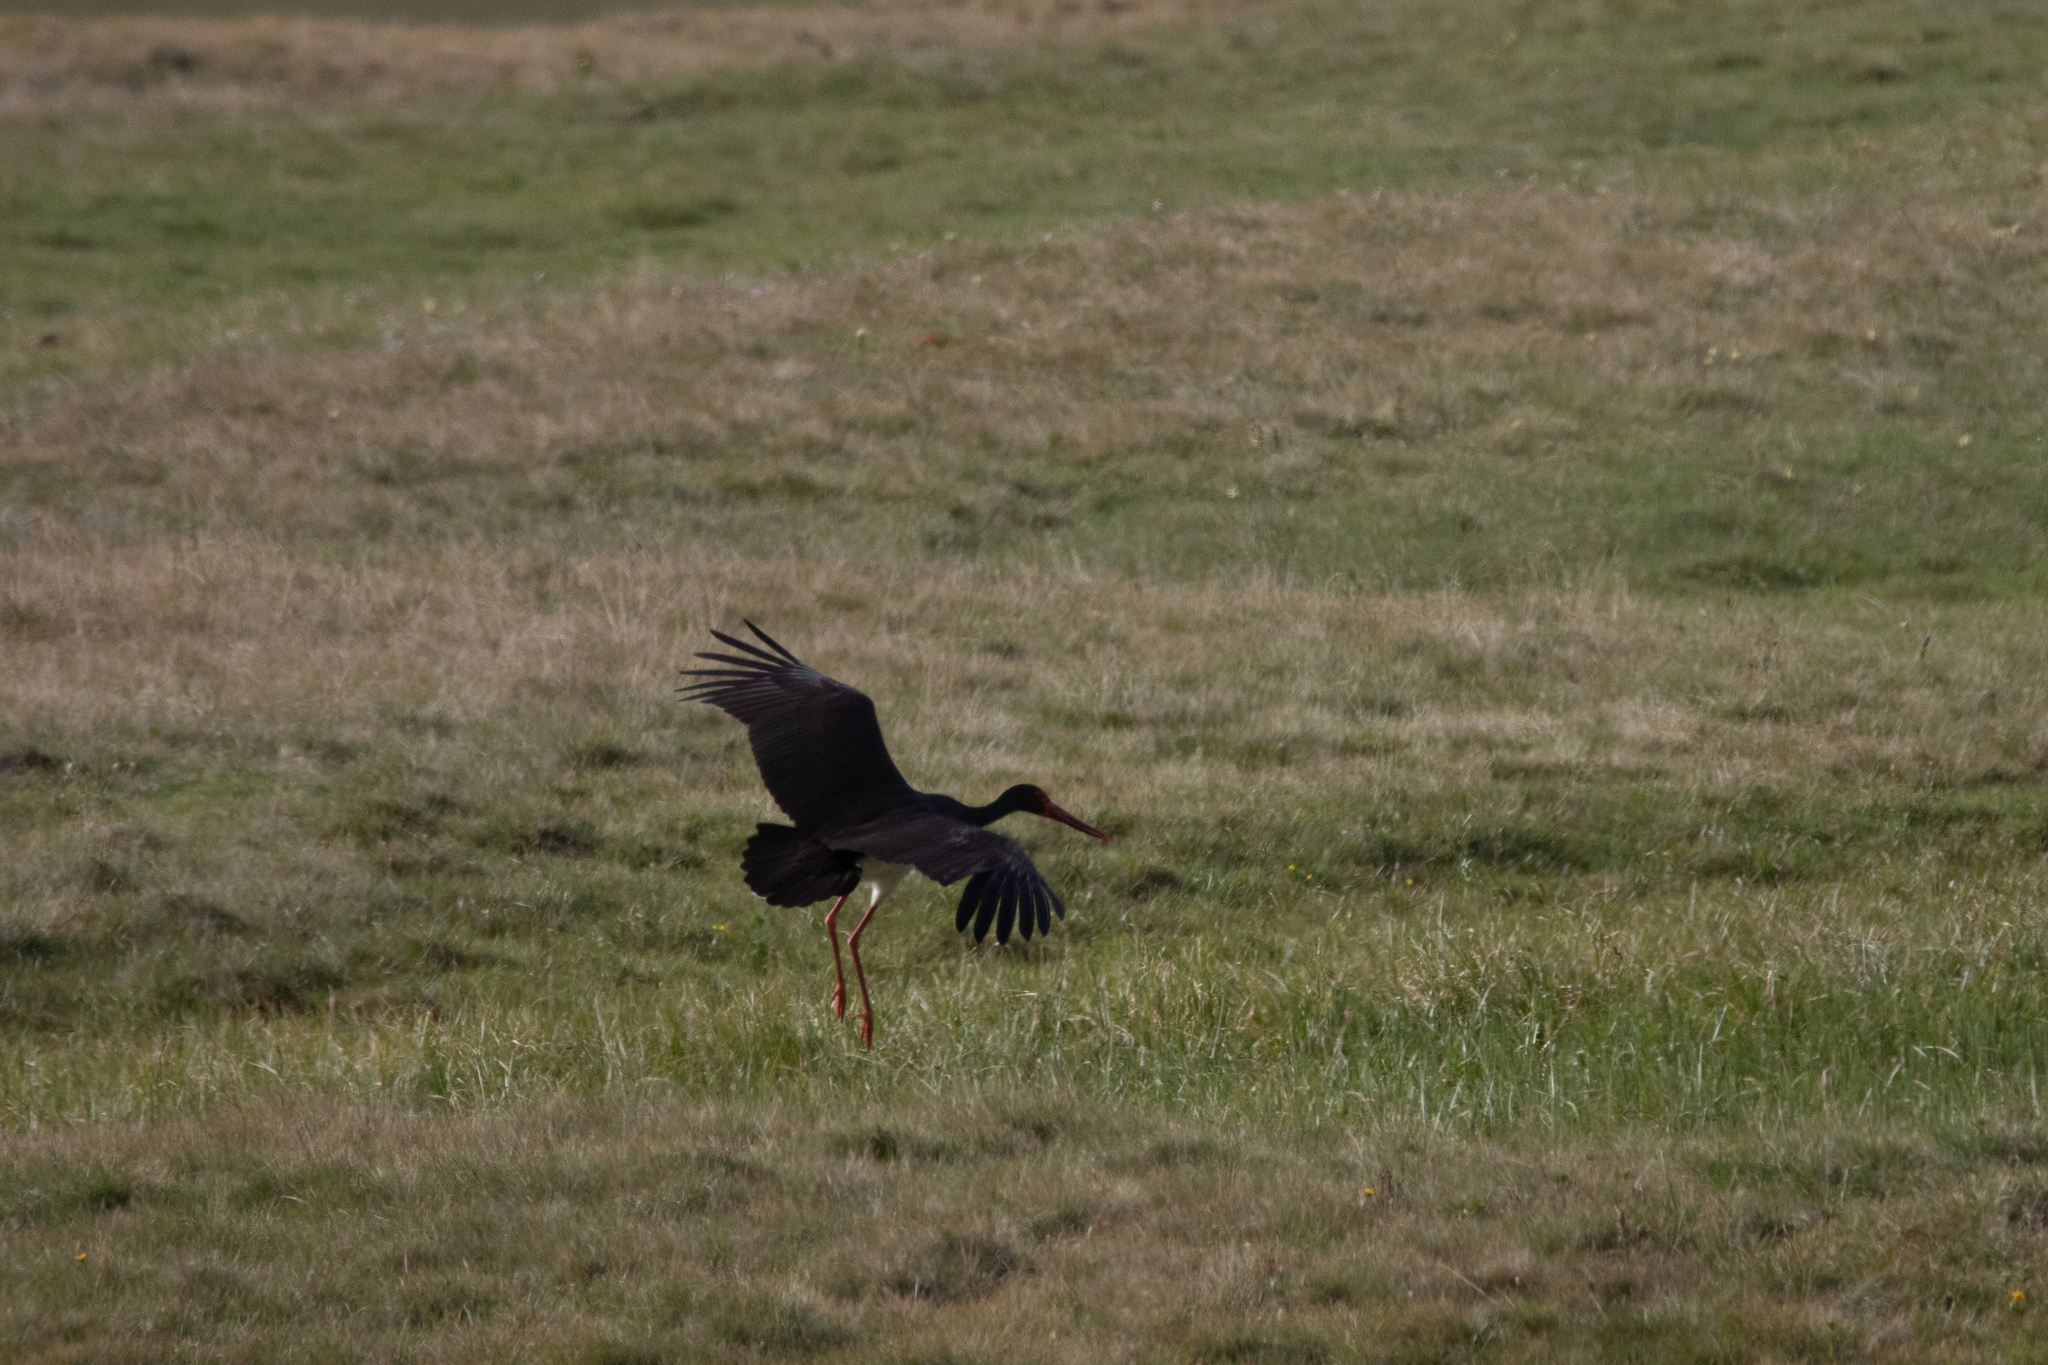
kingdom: Animalia
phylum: Chordata
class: Aves
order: Ciconiiformes
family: Ciconiidae
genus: Ciconia
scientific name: Ciconia nigra
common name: Black stork
